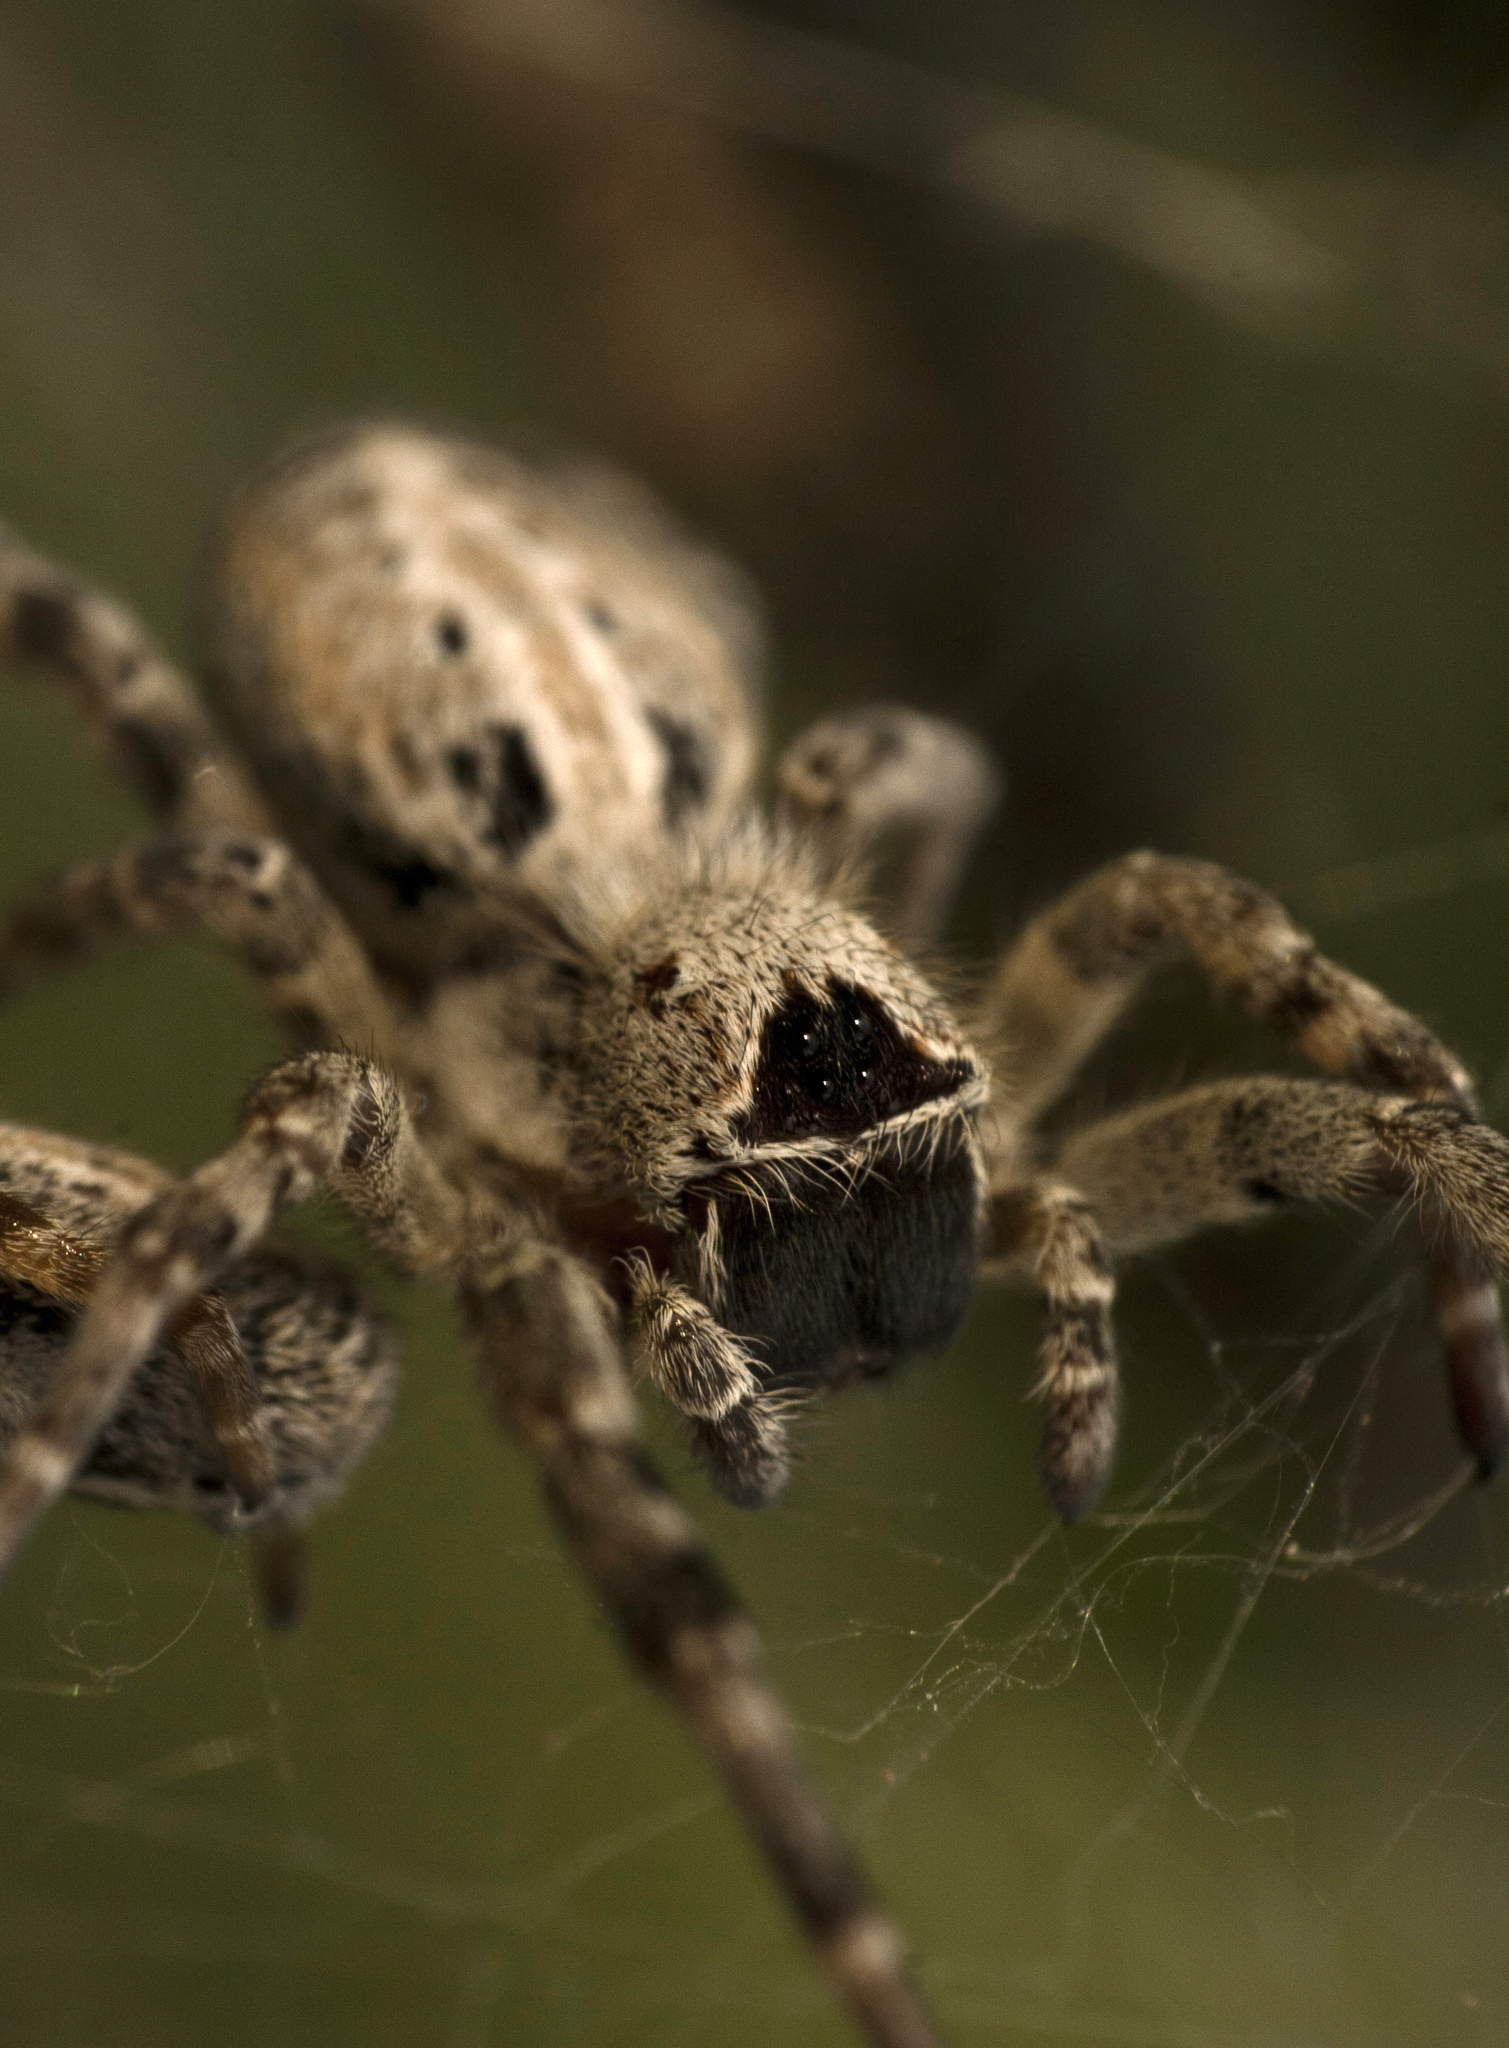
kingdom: Animalia
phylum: Arthropoda
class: Arachnida
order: Araneae
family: Eresidae
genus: Stegodyphus
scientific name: Stegodyphus sarasinorum
